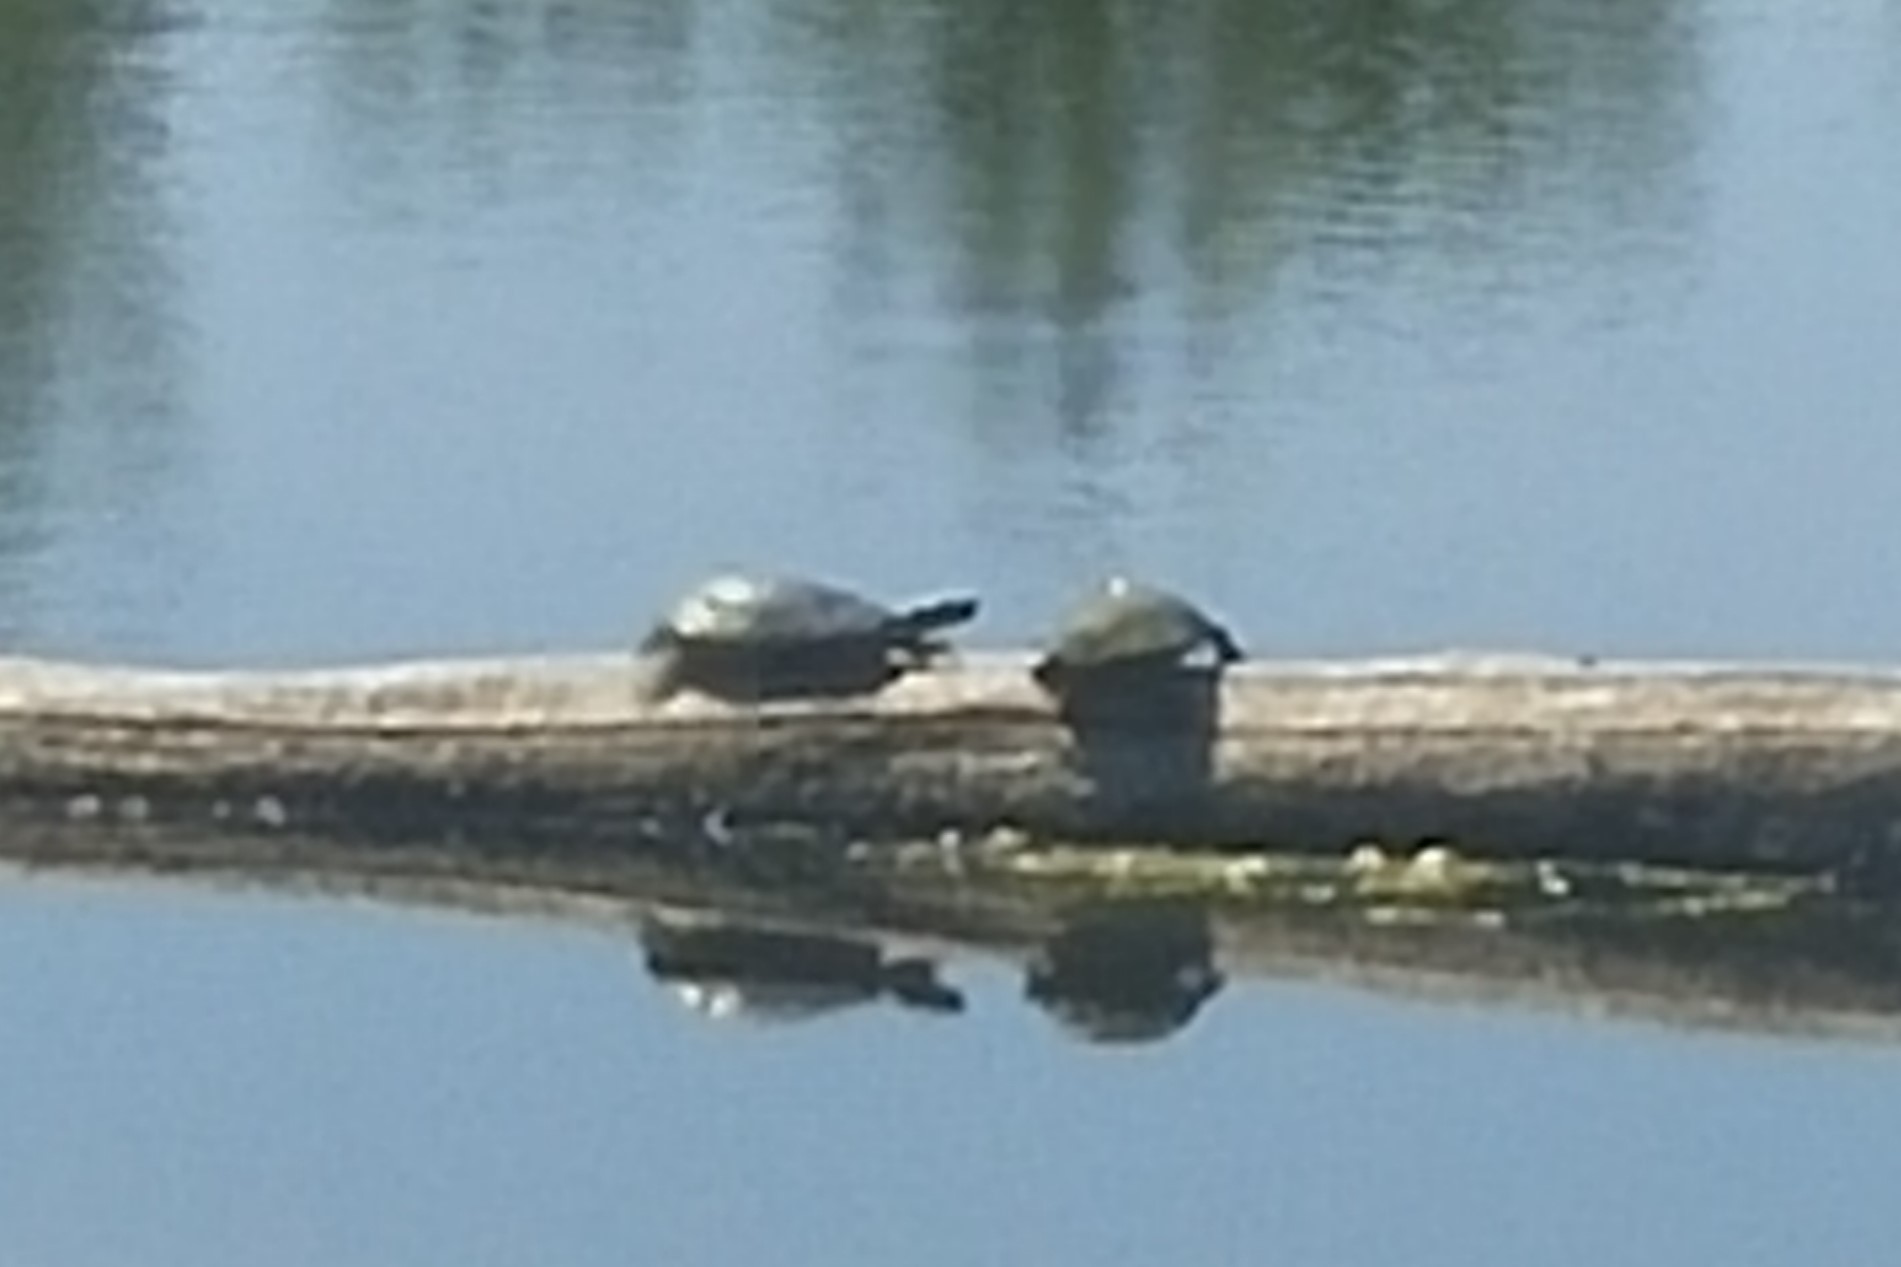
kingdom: Animalia
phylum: Chordata
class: Testudines
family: Emydidae
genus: Chrysemys
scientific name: Chrysemys picta
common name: Painted turtle
